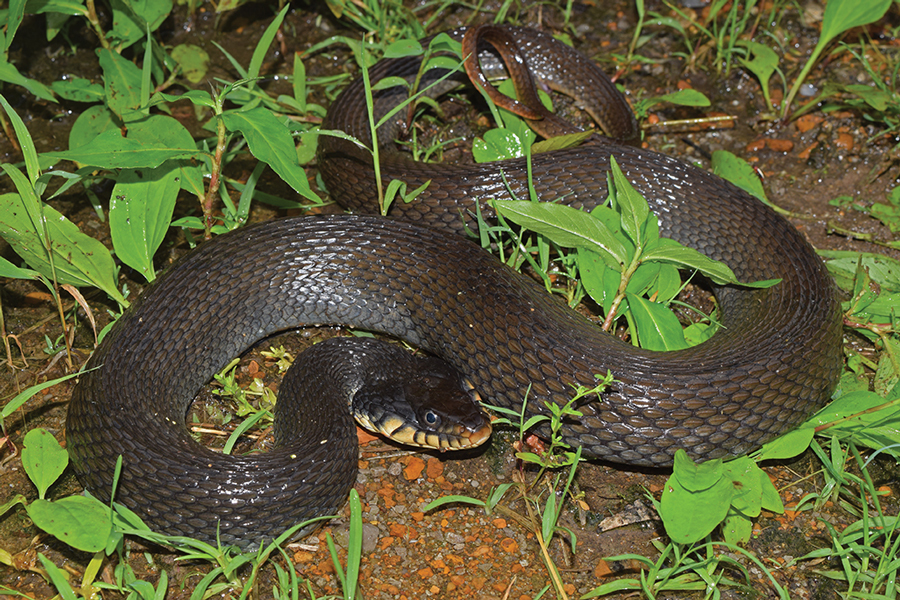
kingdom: Animalia
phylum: Chordata
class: Squamata
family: Colubridae
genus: Nerodia
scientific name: Nerodia erythrogaster
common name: Plainbelly water snake
